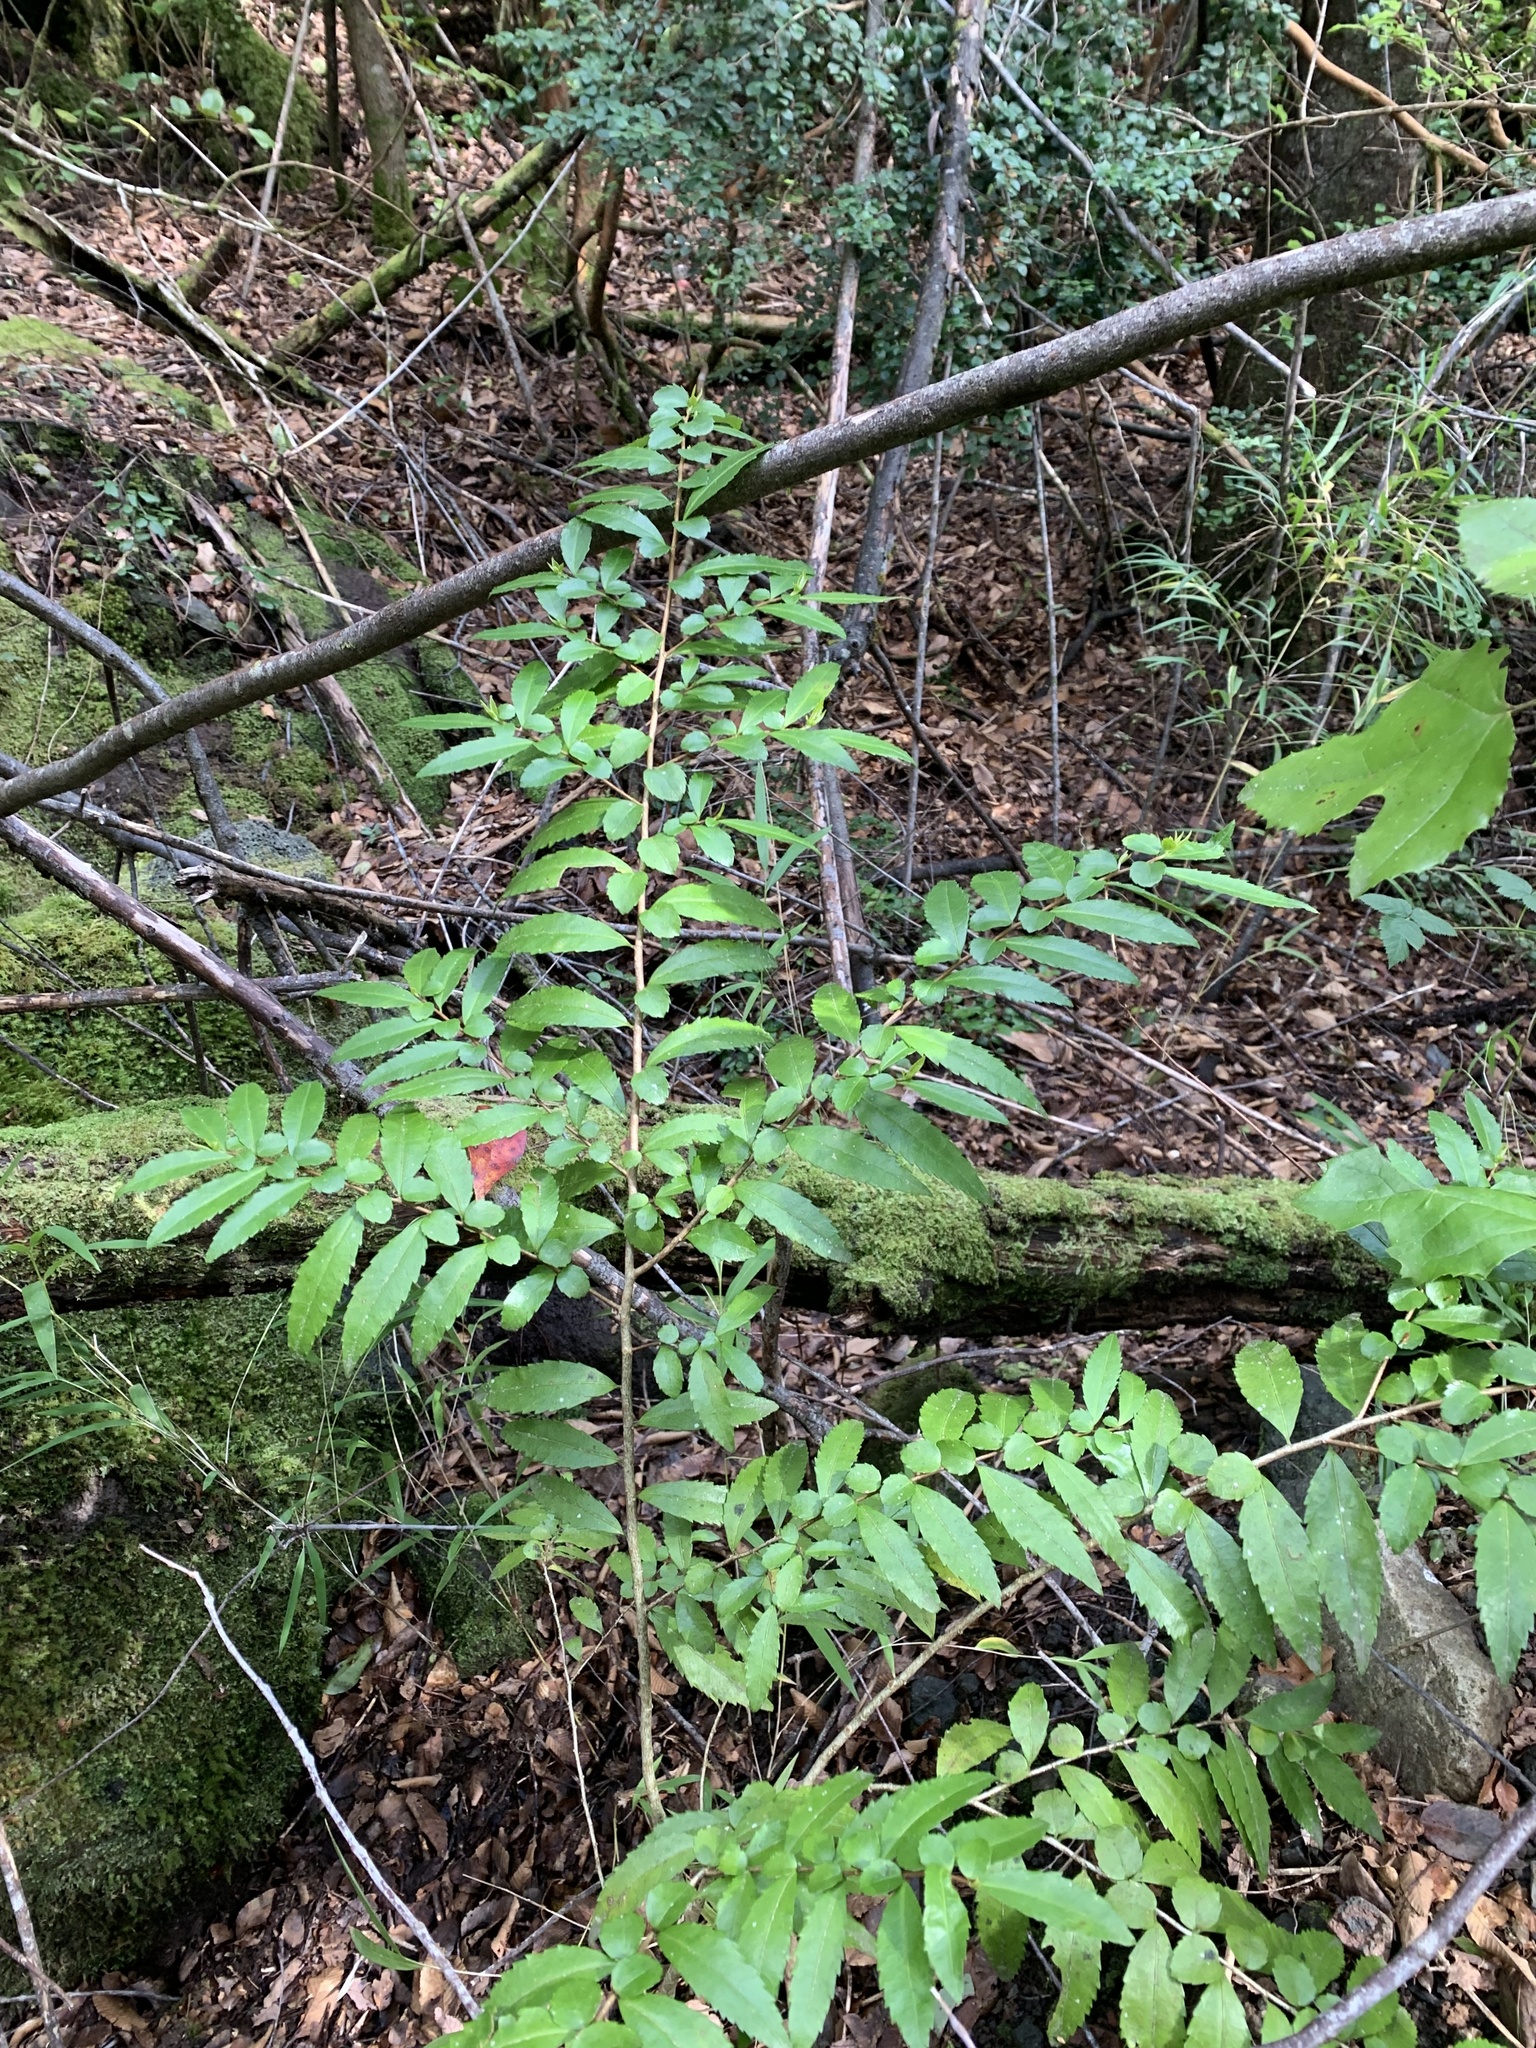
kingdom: Plantae
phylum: Tracheophyta
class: Magnoliopsida
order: Malpighiales
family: Salicaceae
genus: Azara
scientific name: Azara lanceolata
